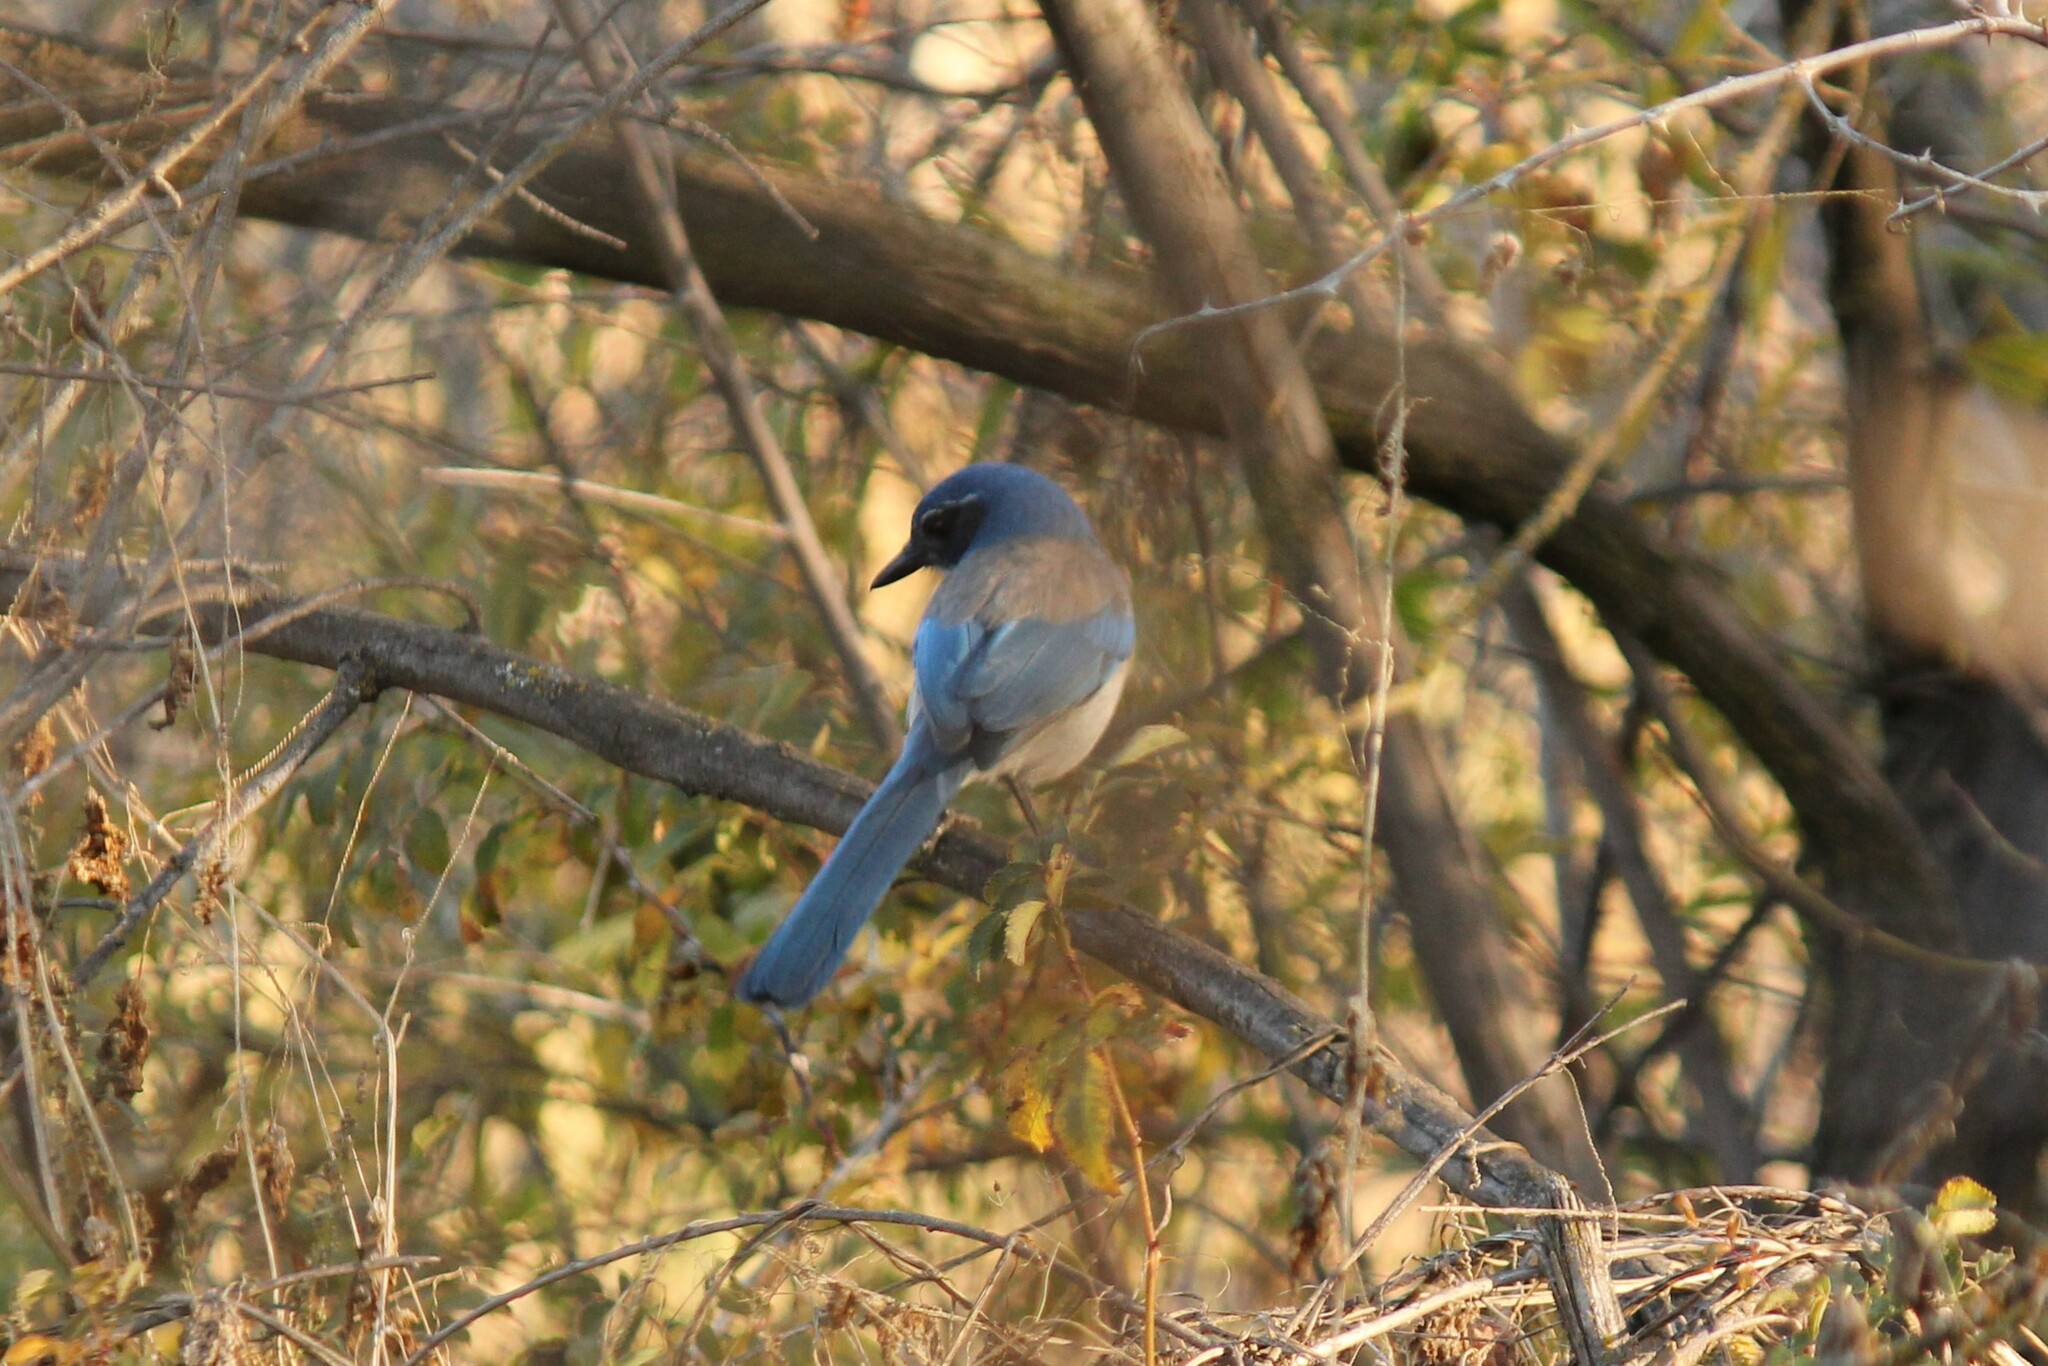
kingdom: Animalia
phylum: Chordata
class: Aves
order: Passeriformes
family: Corvidae
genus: Aphelocoma
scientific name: Aphelocoma californica
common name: California scrub-jay
